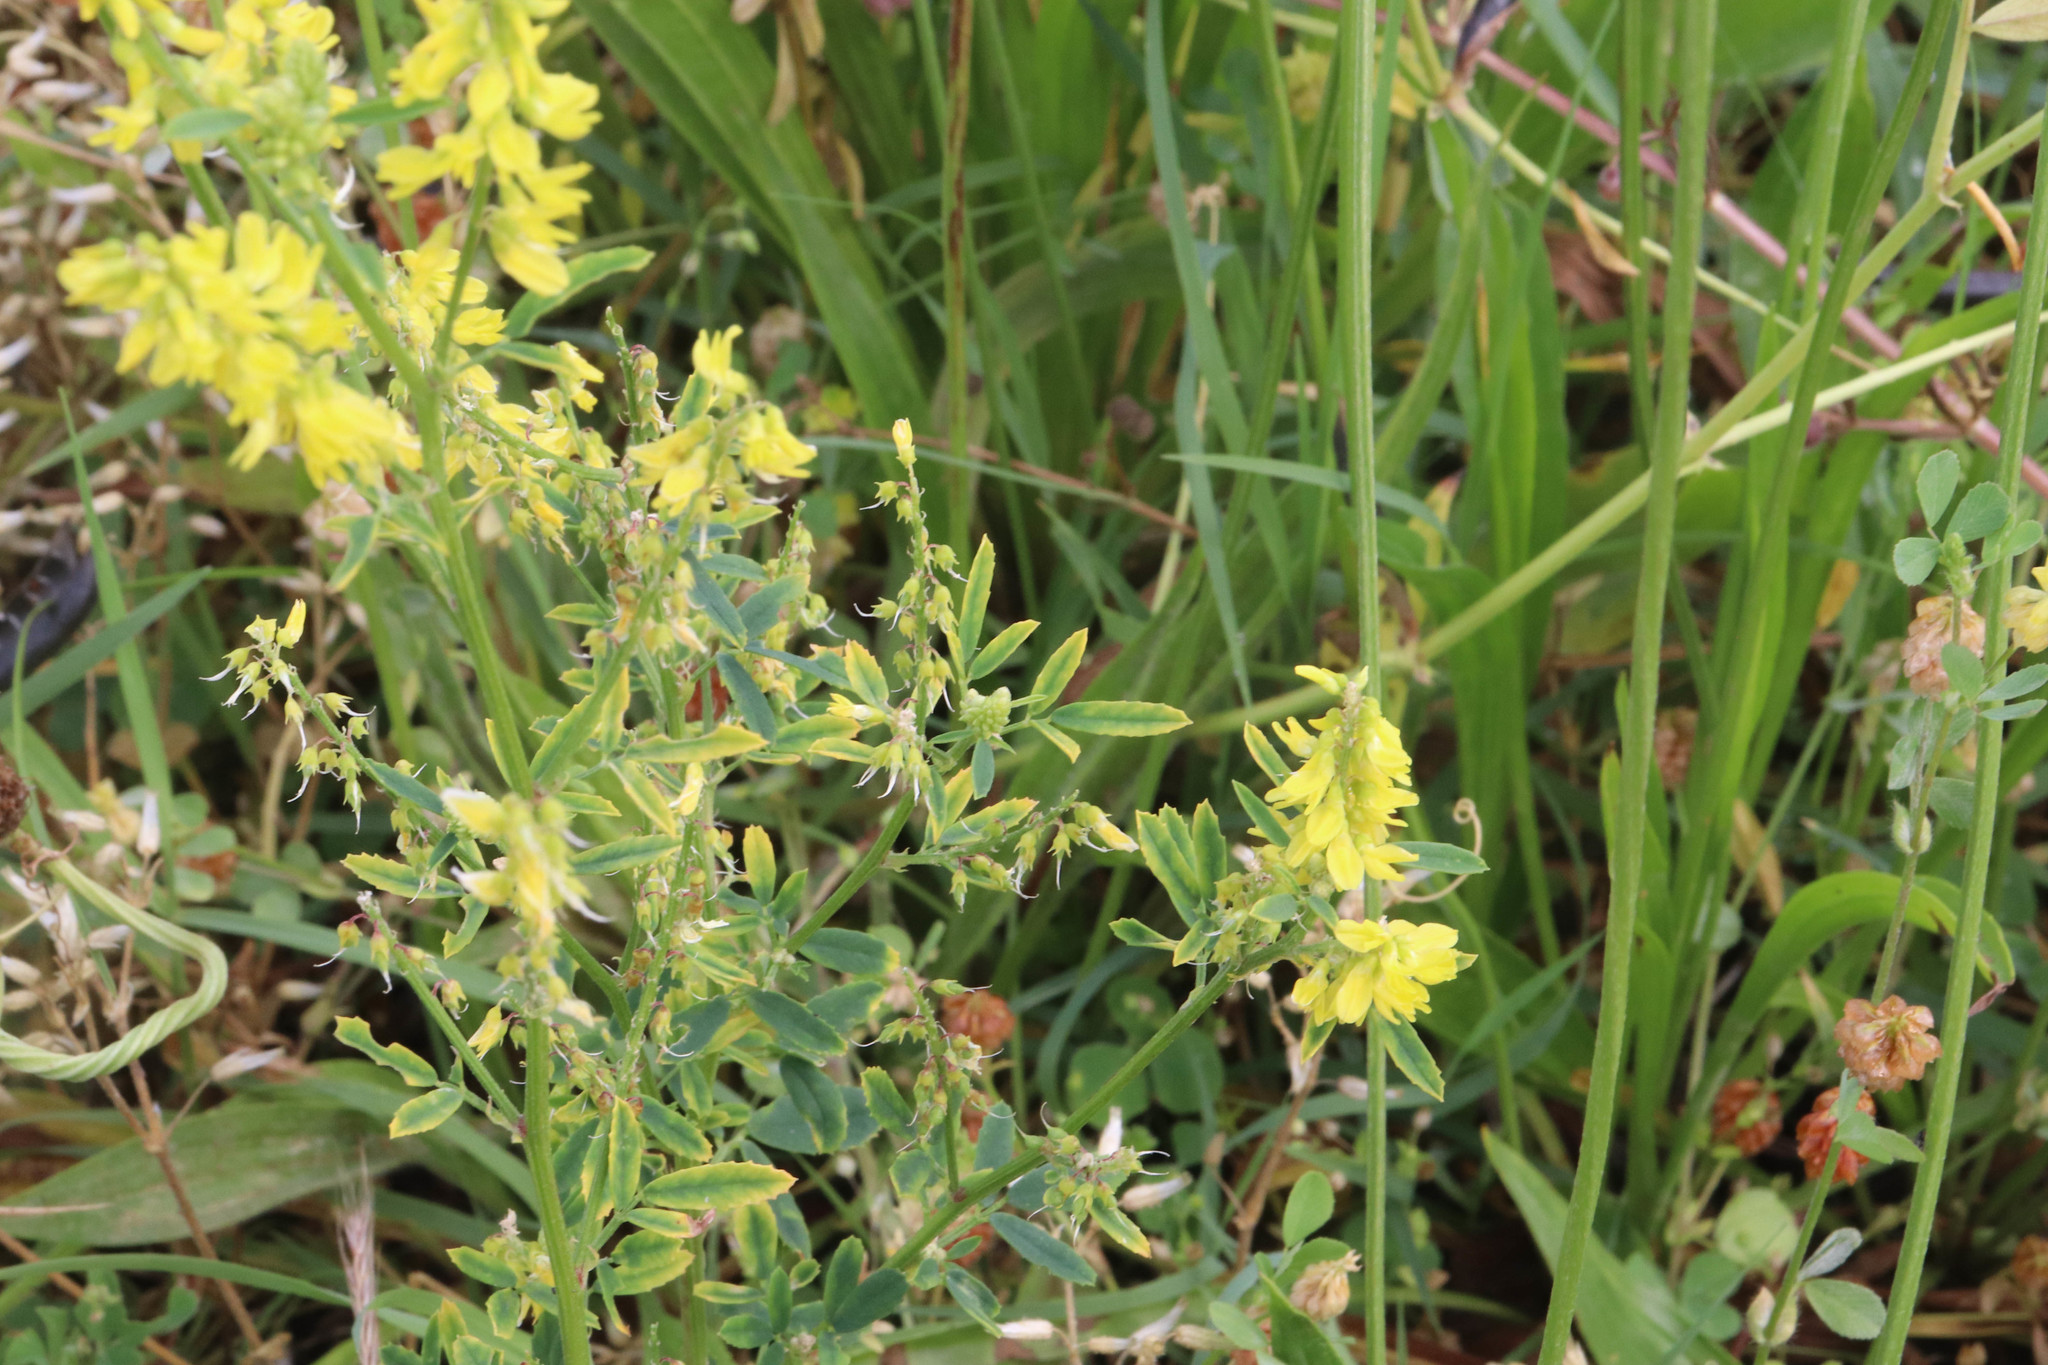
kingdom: Plantae
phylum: Tracheophyta
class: Magnoliopsida
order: Fabales
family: Fabaceae
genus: Melilotus
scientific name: Melilotus officinalis
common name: Sweetclover
